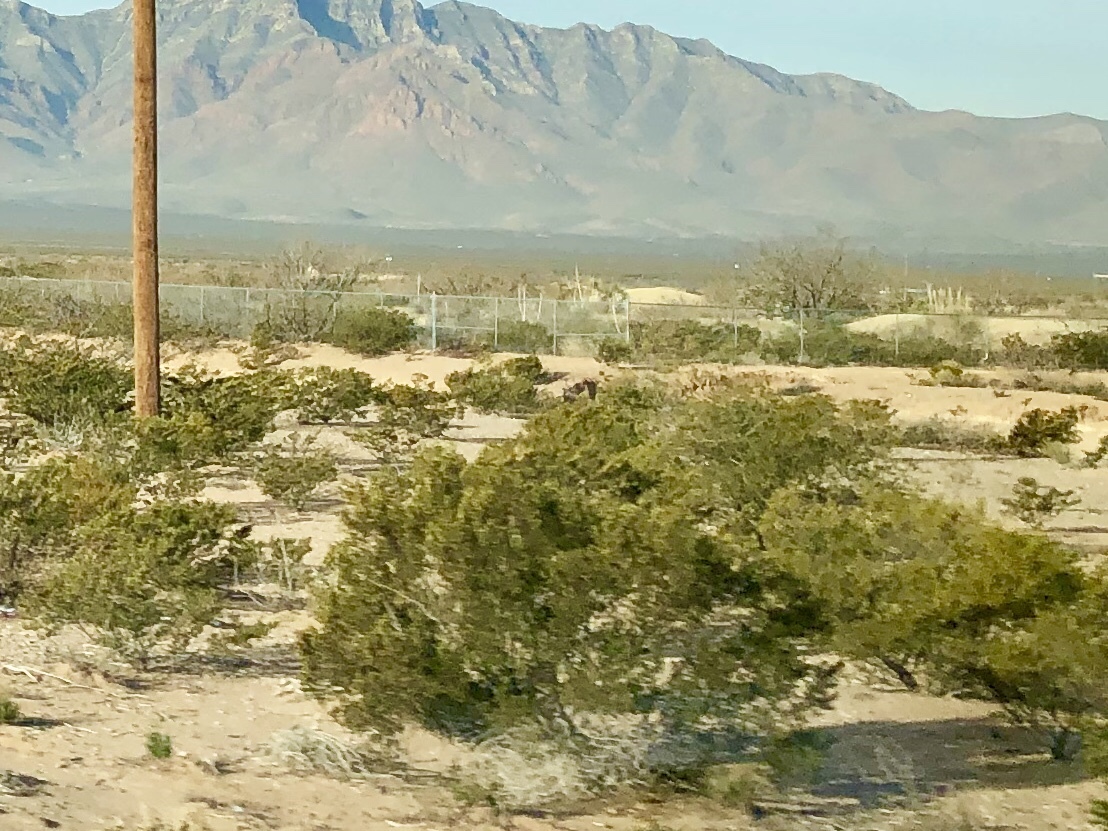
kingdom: Plantae
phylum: Tracheophyta
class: Magnoliopsida
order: Zygophyllales
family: Zygophyllaceae
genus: Larrea
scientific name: Larrea tridentata
